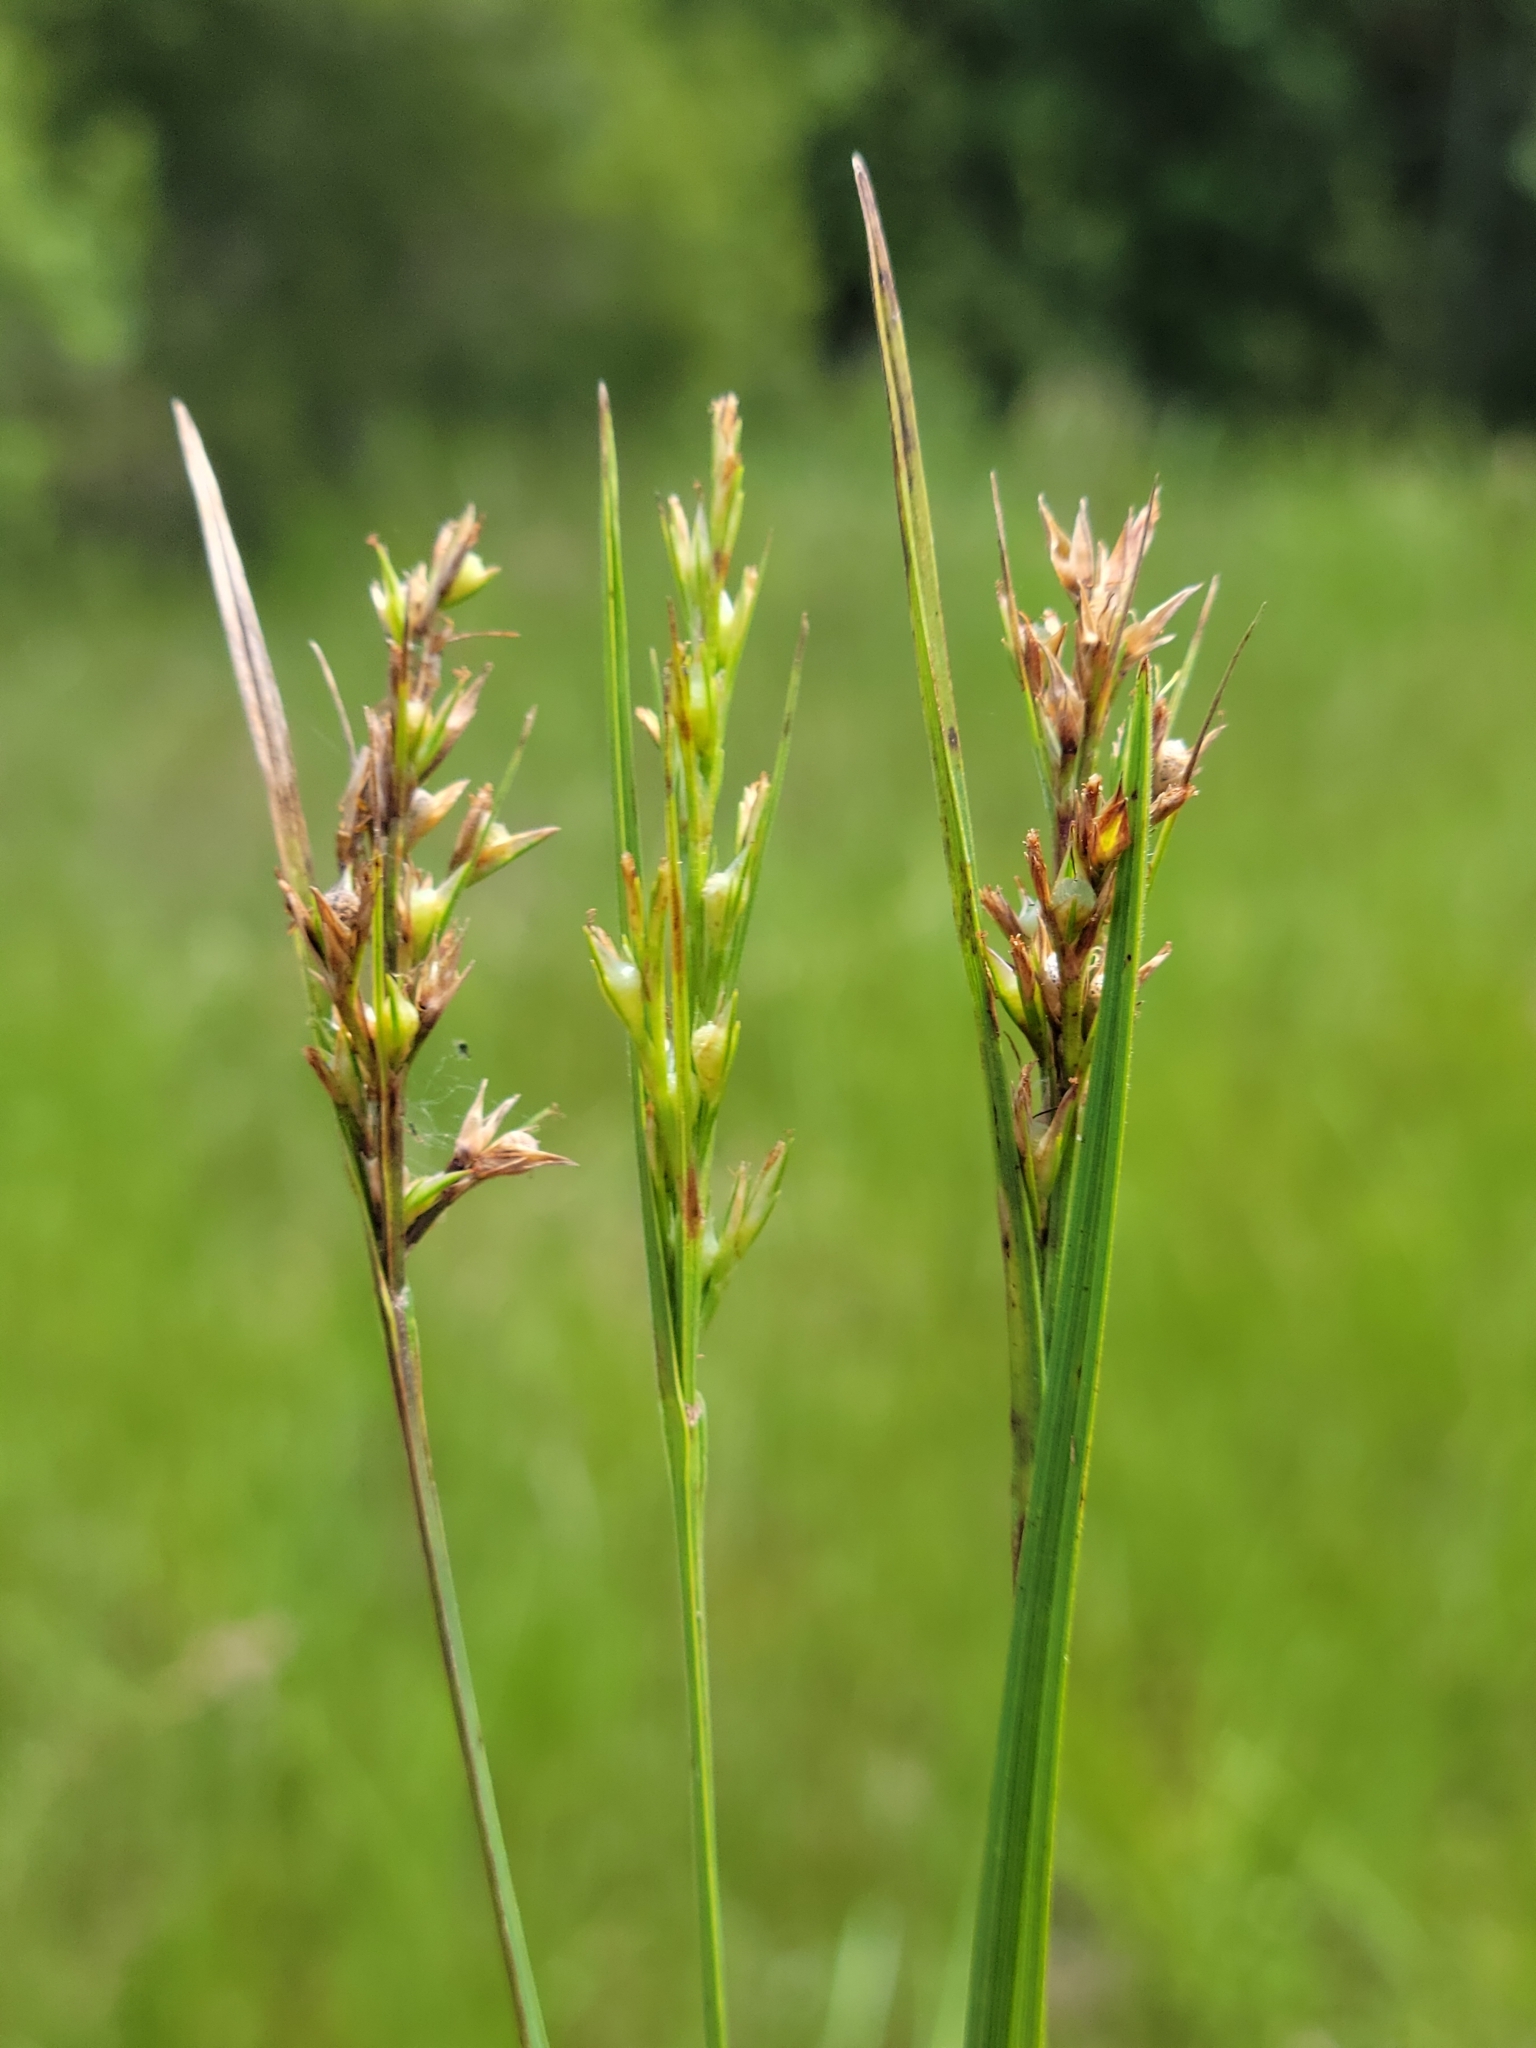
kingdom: Plantae
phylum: Tracheophyta
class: Liliopsida
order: Poales
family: Cyperaceae
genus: Scleria
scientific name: Scleria muehlenbergii
